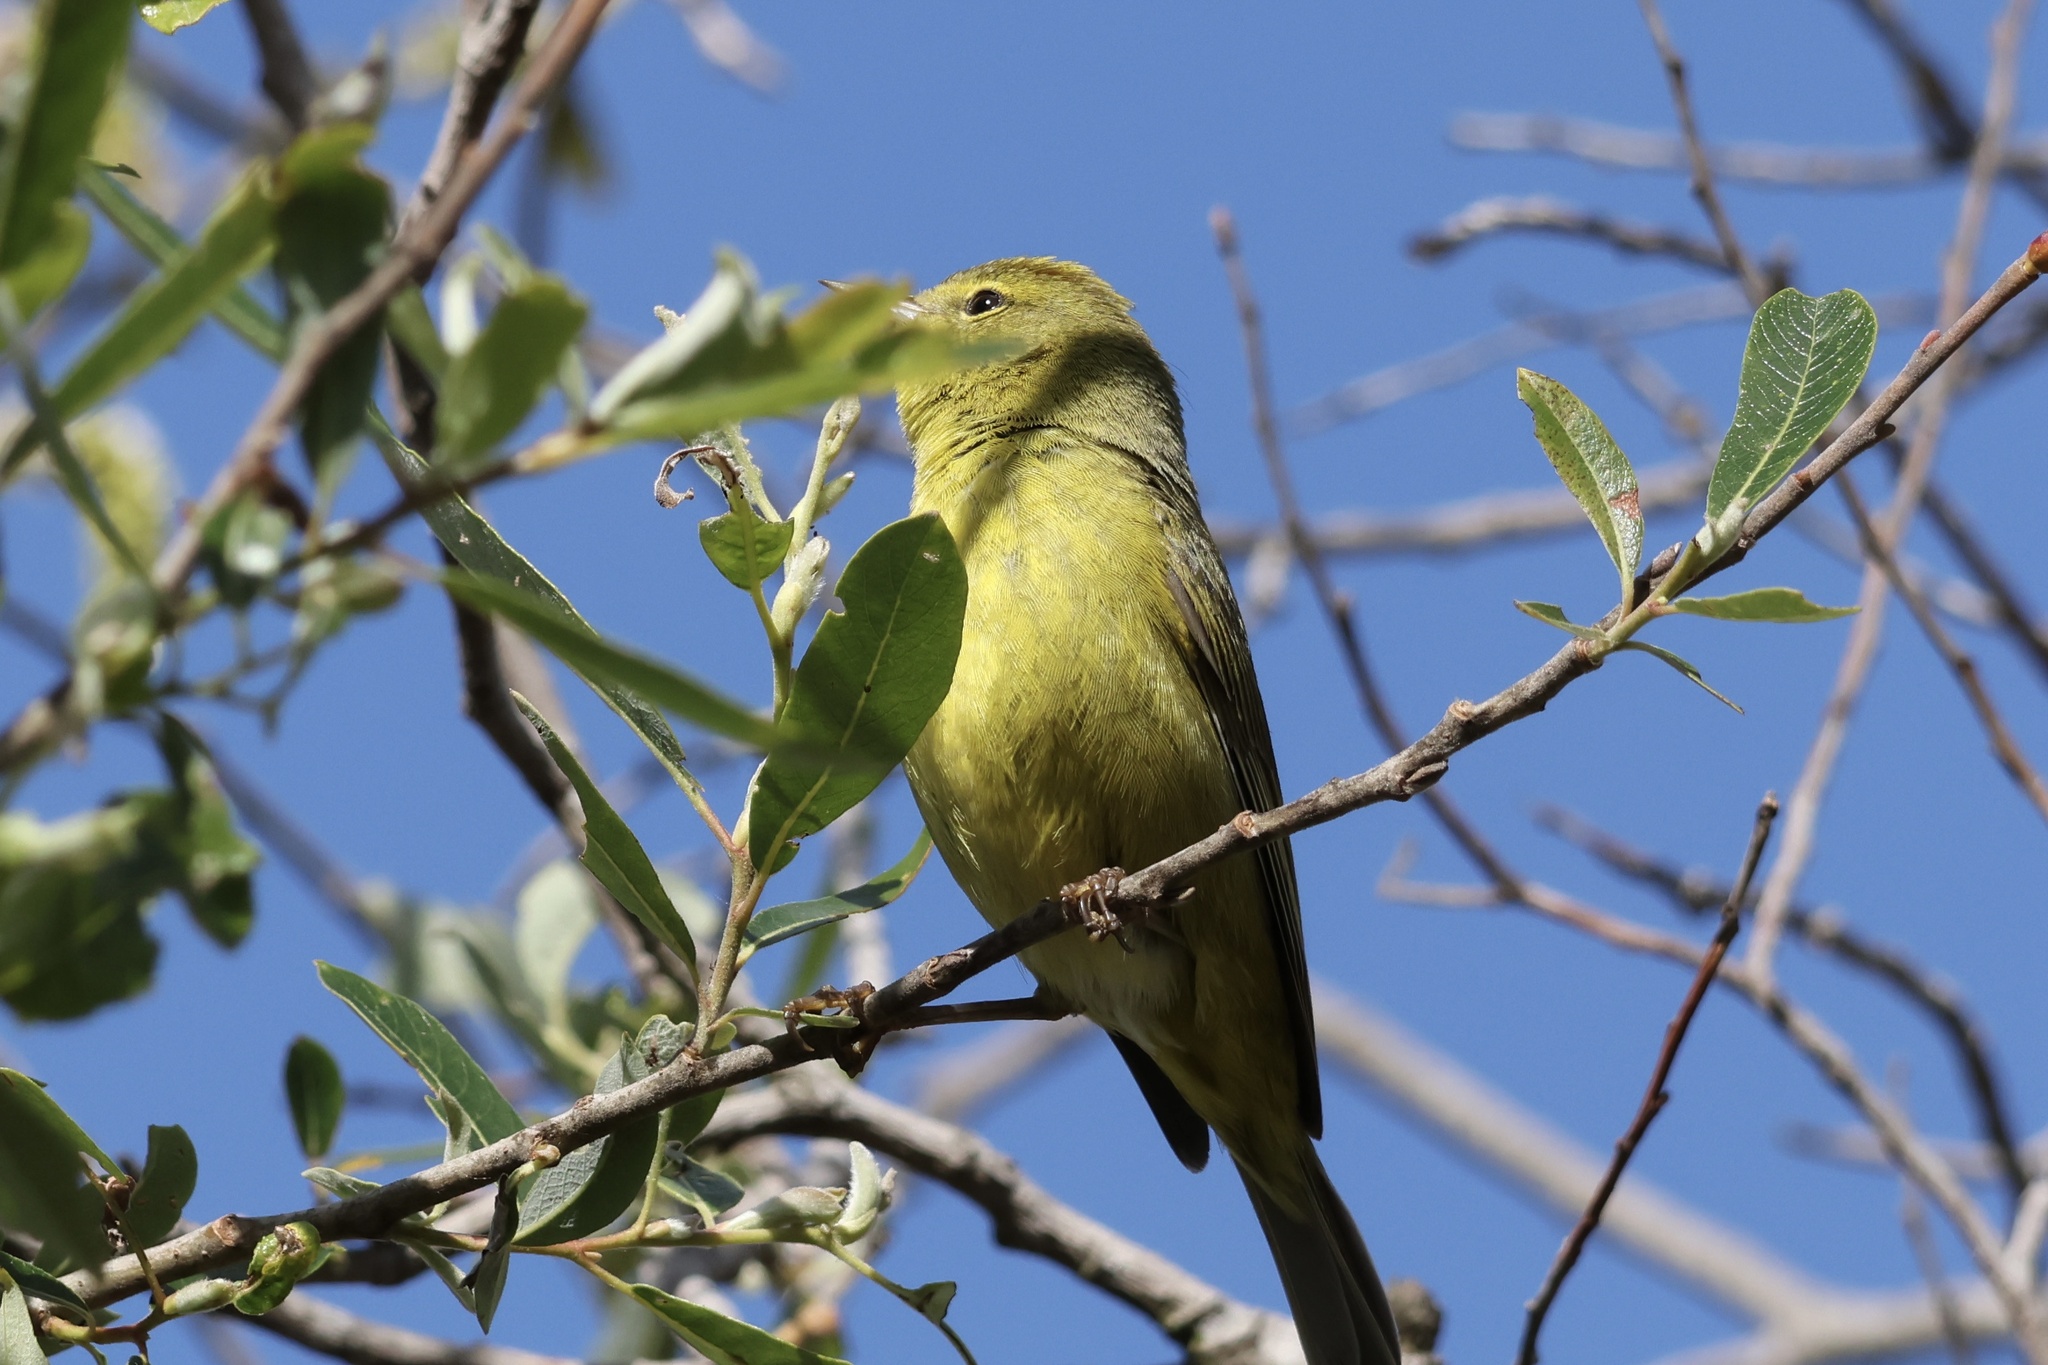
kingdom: Animalia
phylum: Chordata
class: Aves
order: Passeriformes
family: Parulidae
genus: Leiothlypis
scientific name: Leiothlypis celata
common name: Orange-crowned warbler
